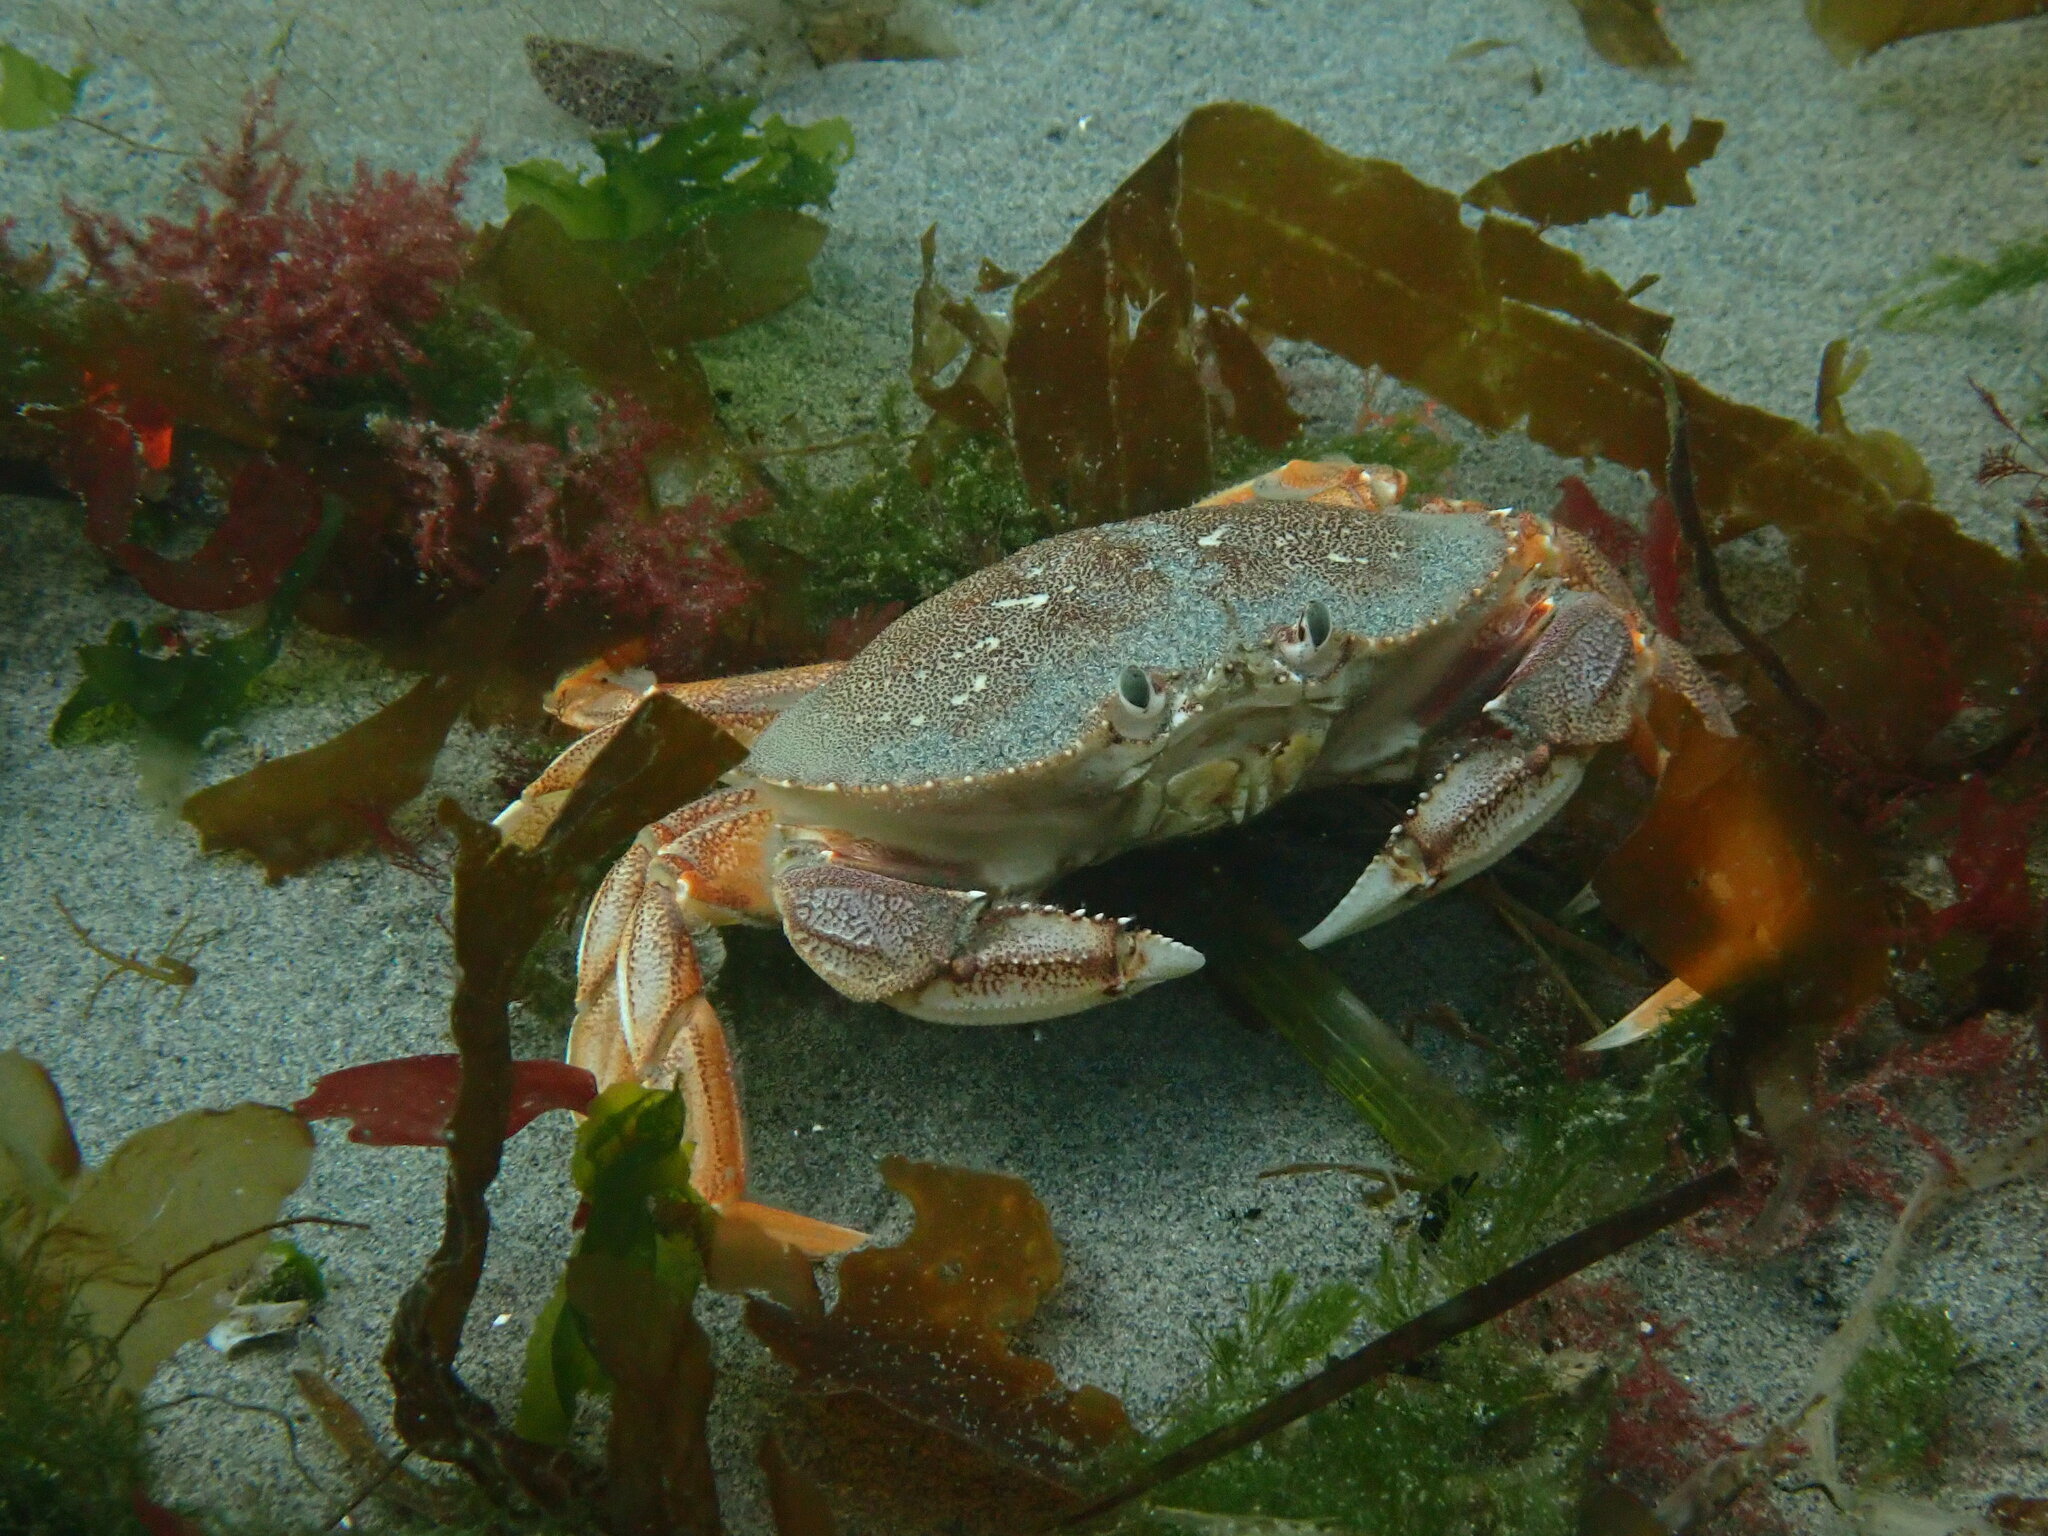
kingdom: Animalia
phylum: Arthropoda
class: Malacostraca
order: Decapoda
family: Cancridae
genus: Metacarcinus
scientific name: Metacarcinus magister
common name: Californian crab
